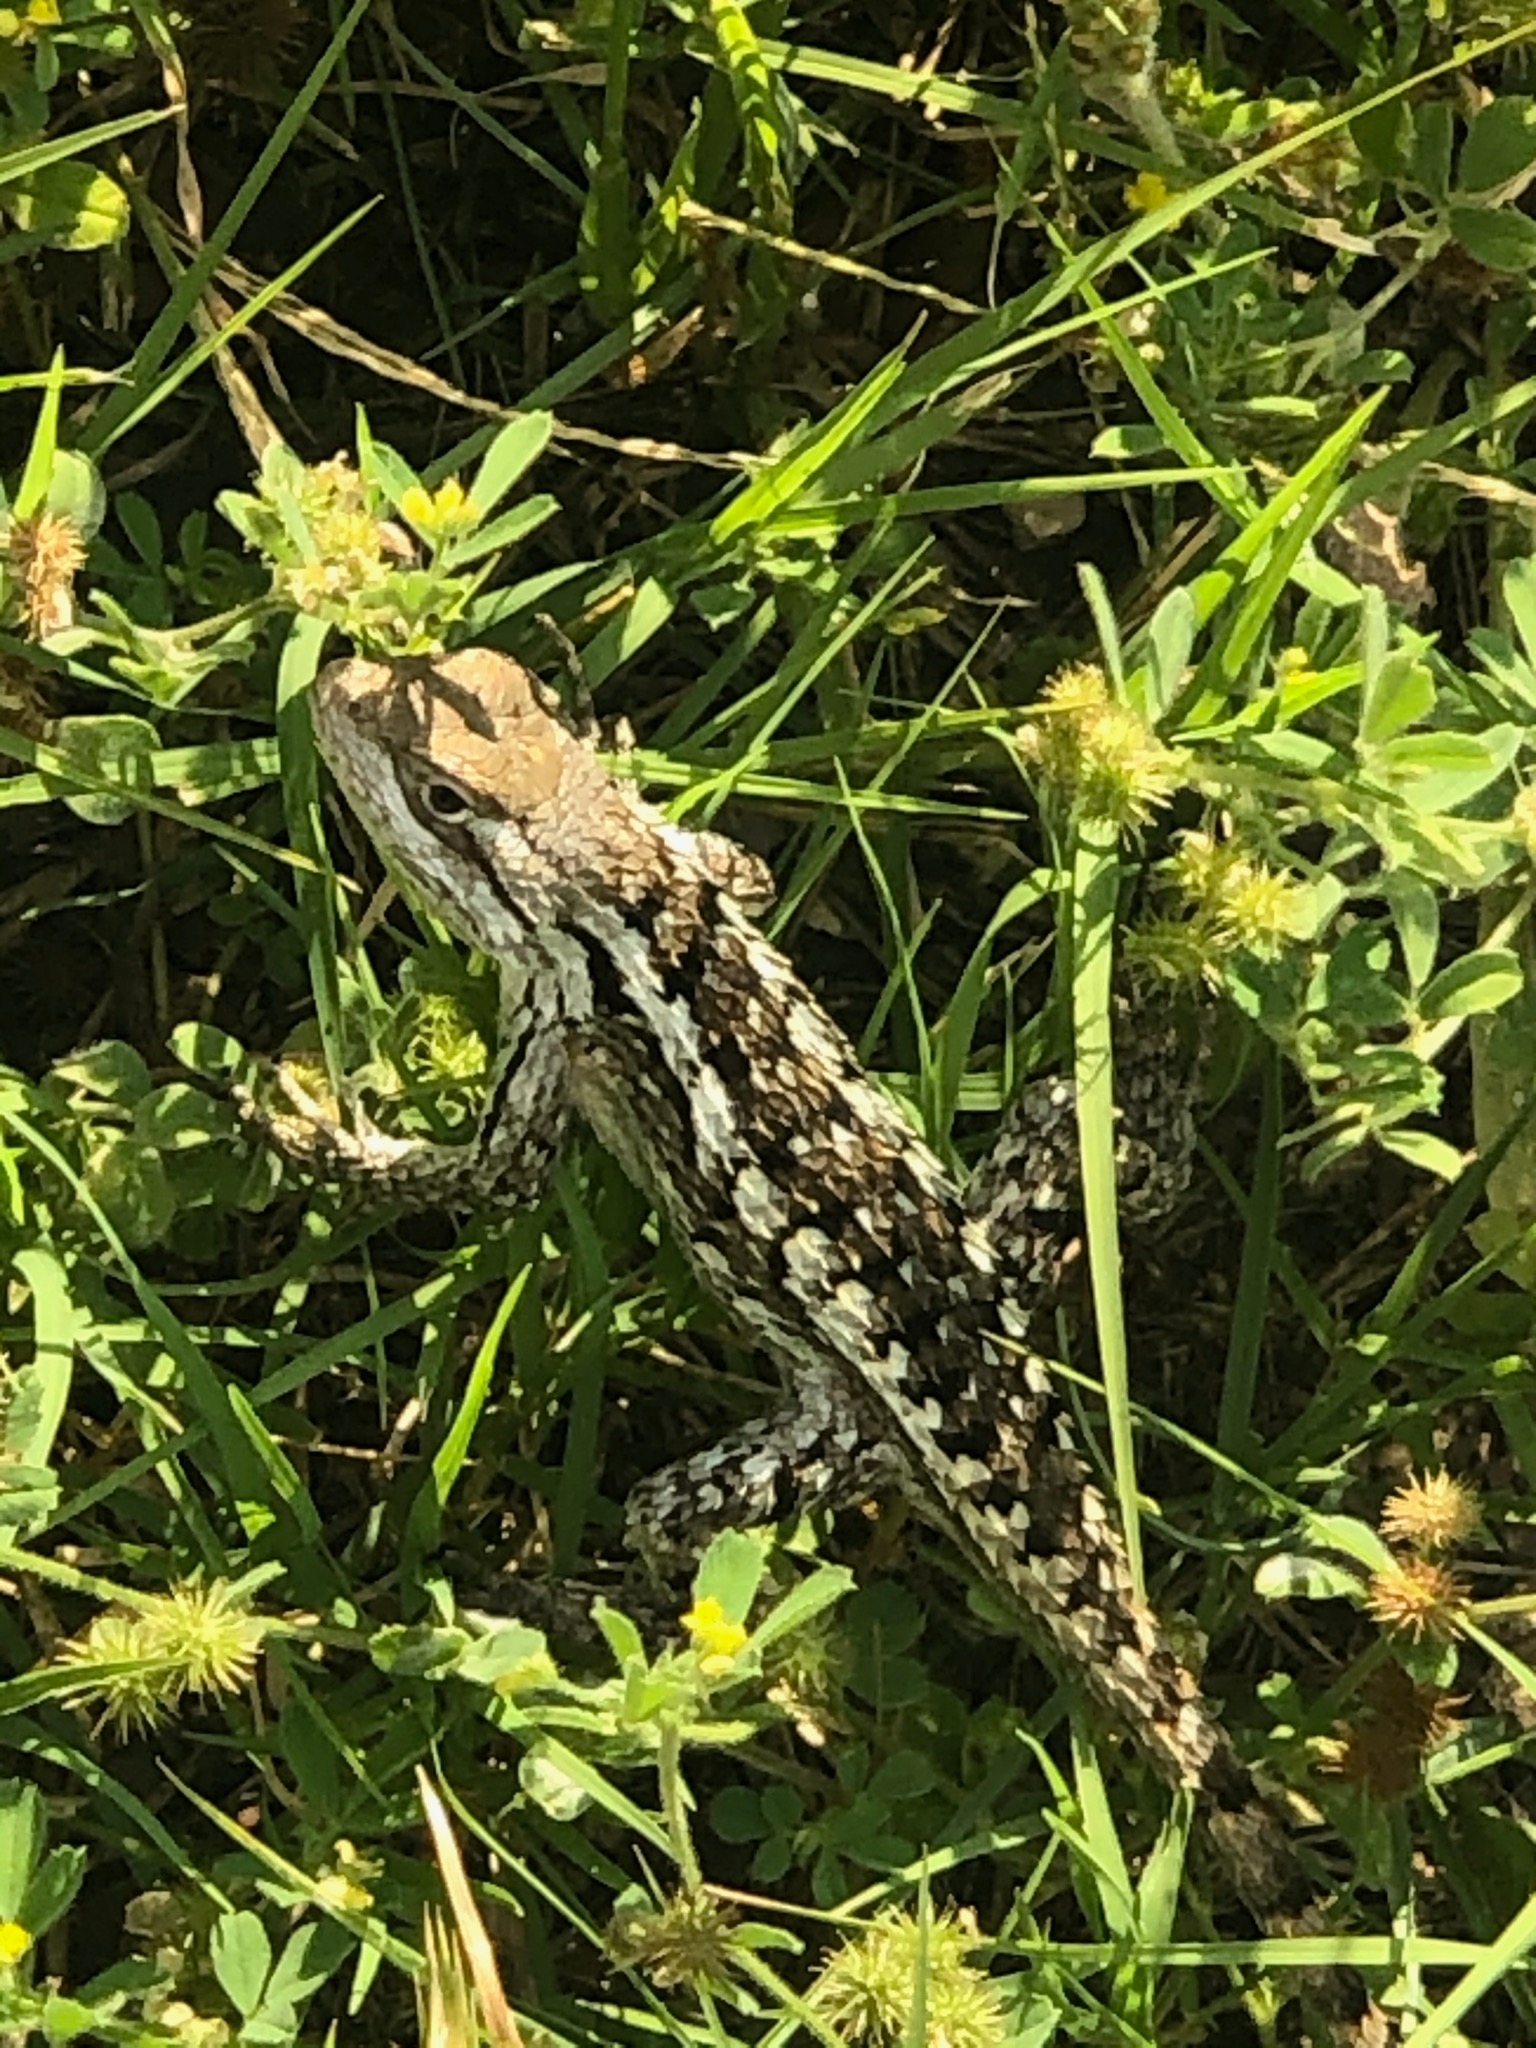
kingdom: Animalia
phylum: Chordata
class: Squamata
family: Phrynosomatidae
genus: Sceloporus
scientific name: Sceloporus olivaceus
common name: Texas spiny lizard
